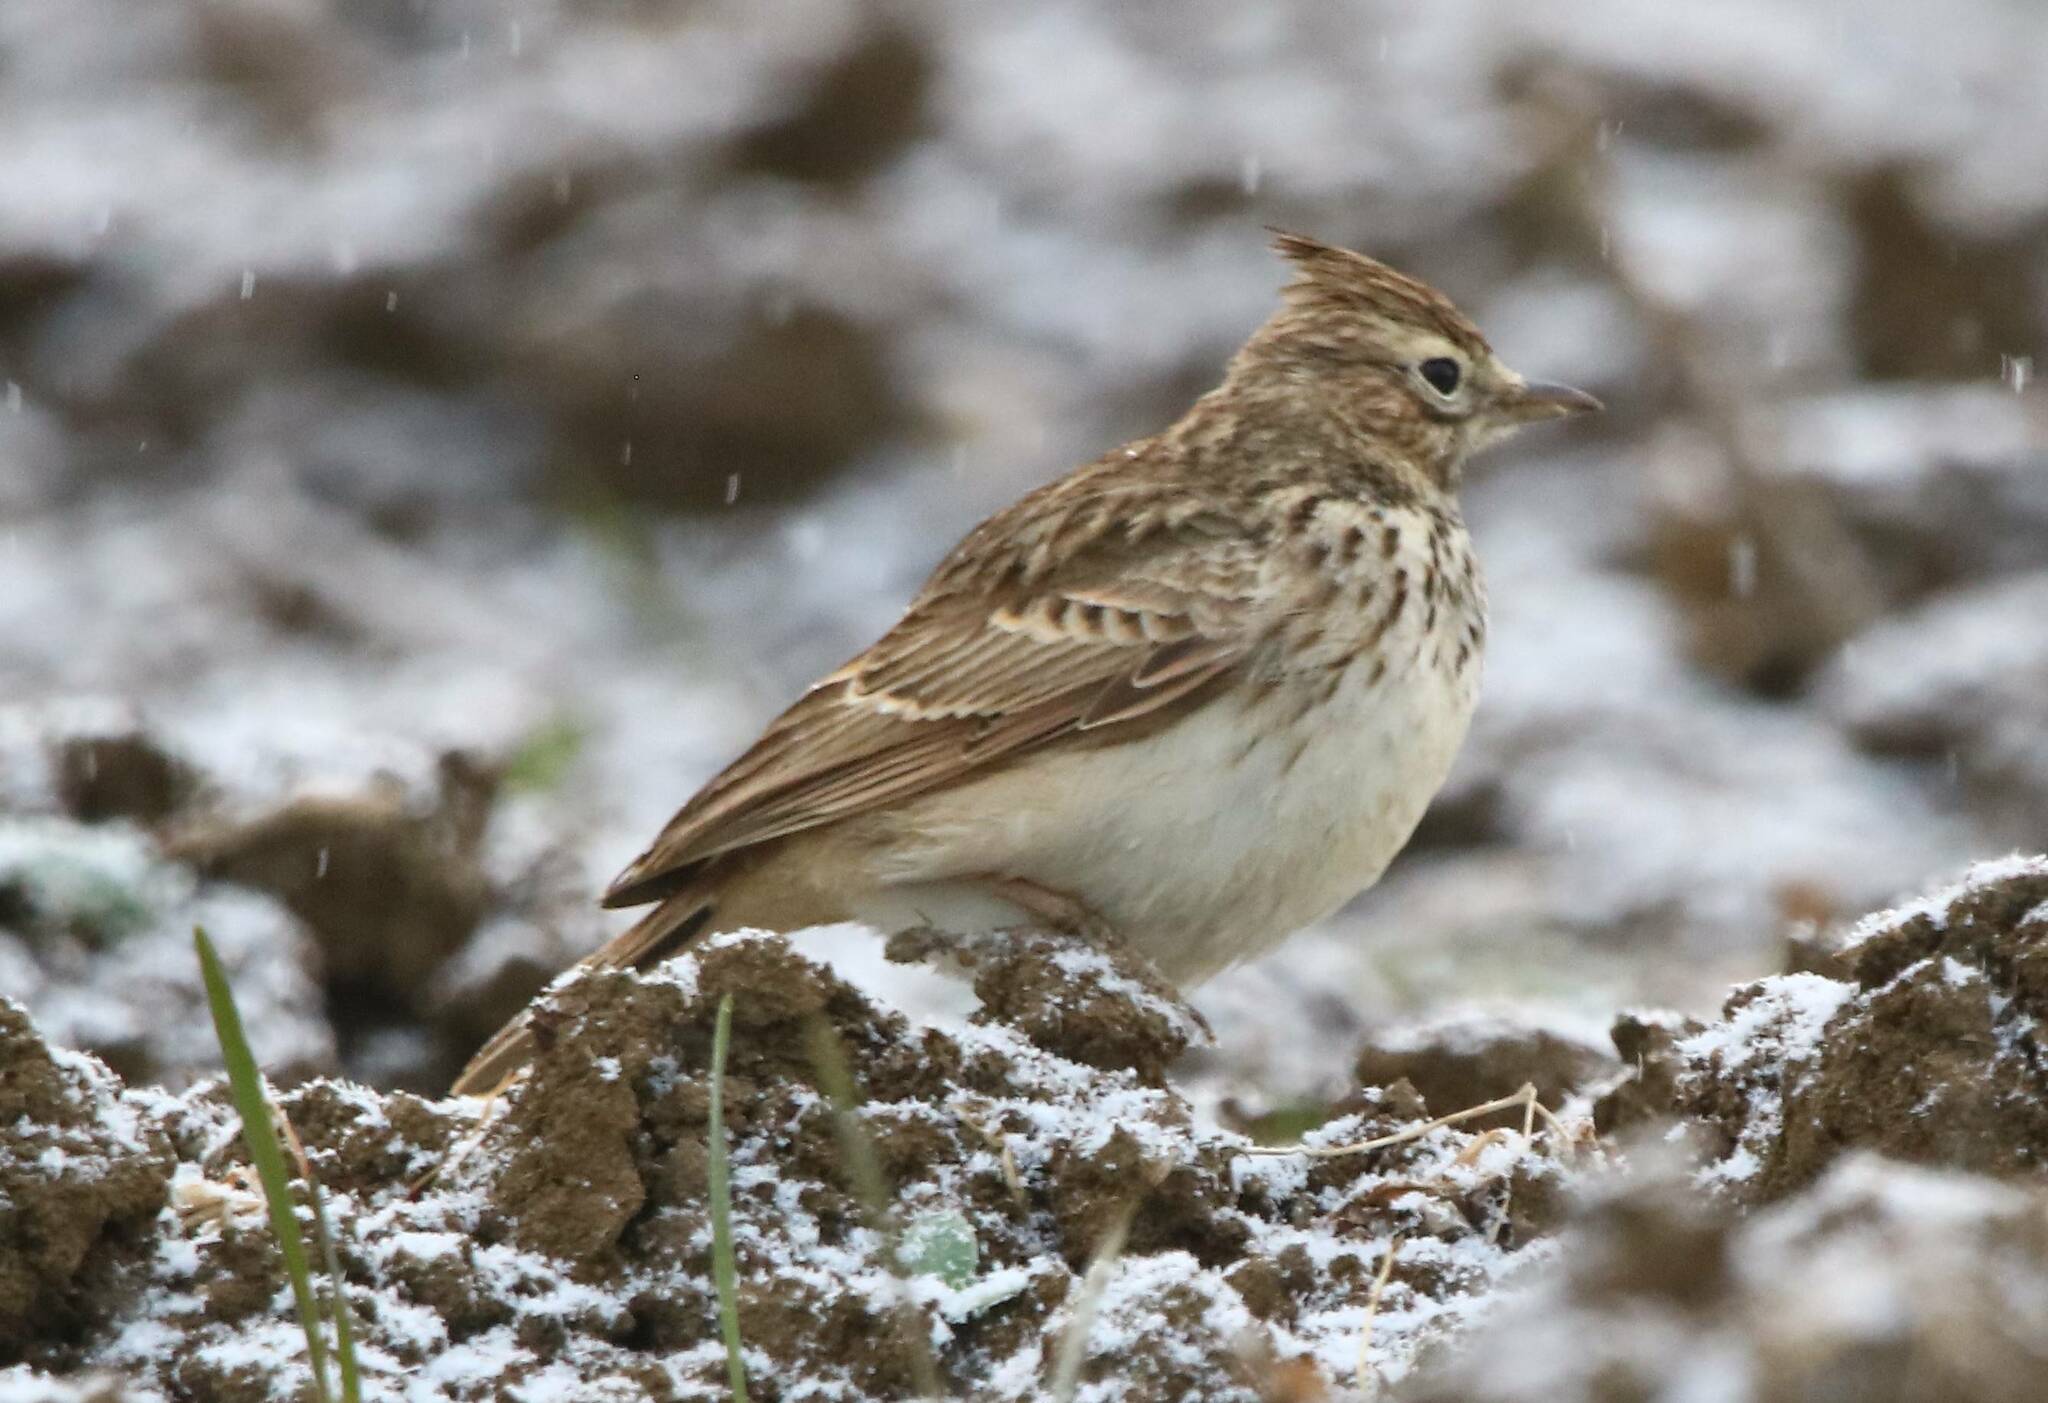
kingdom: Animalia
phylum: Chordata
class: Aves
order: Passeriformes
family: Alaudidae
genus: Galerida
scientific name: Galerida theklae
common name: Thekla lark
